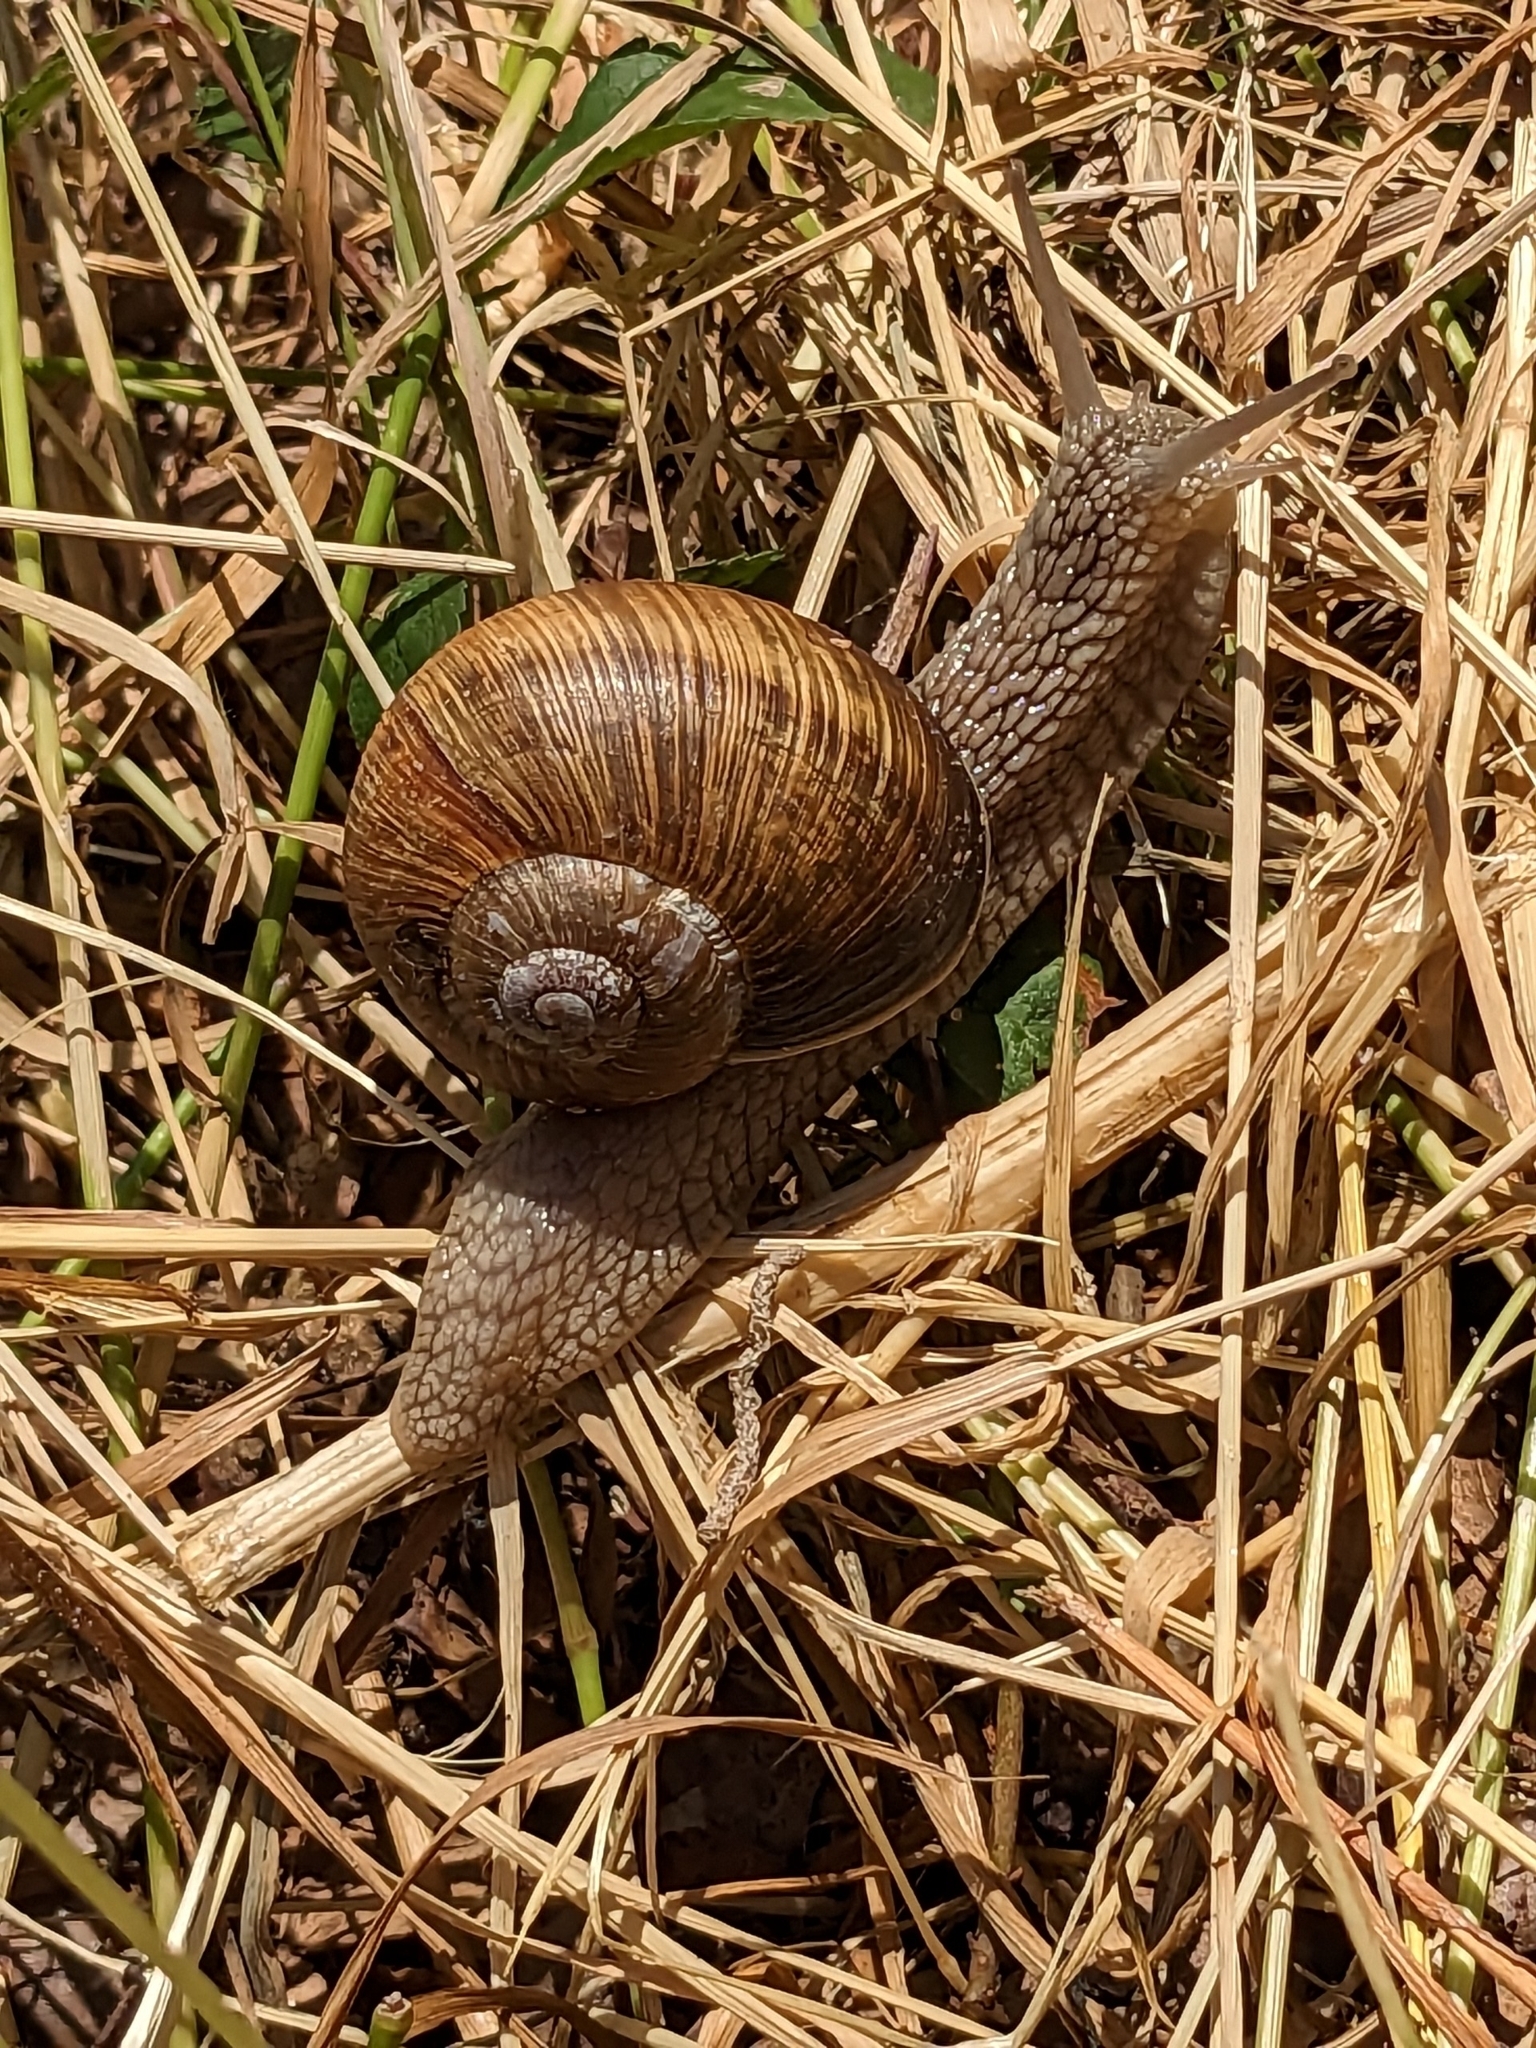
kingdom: Animalia
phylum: Mollusca
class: Gastropoda
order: Stylommatophora
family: Helicidae
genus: Helix
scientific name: Helix pomatia
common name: Roman snail
